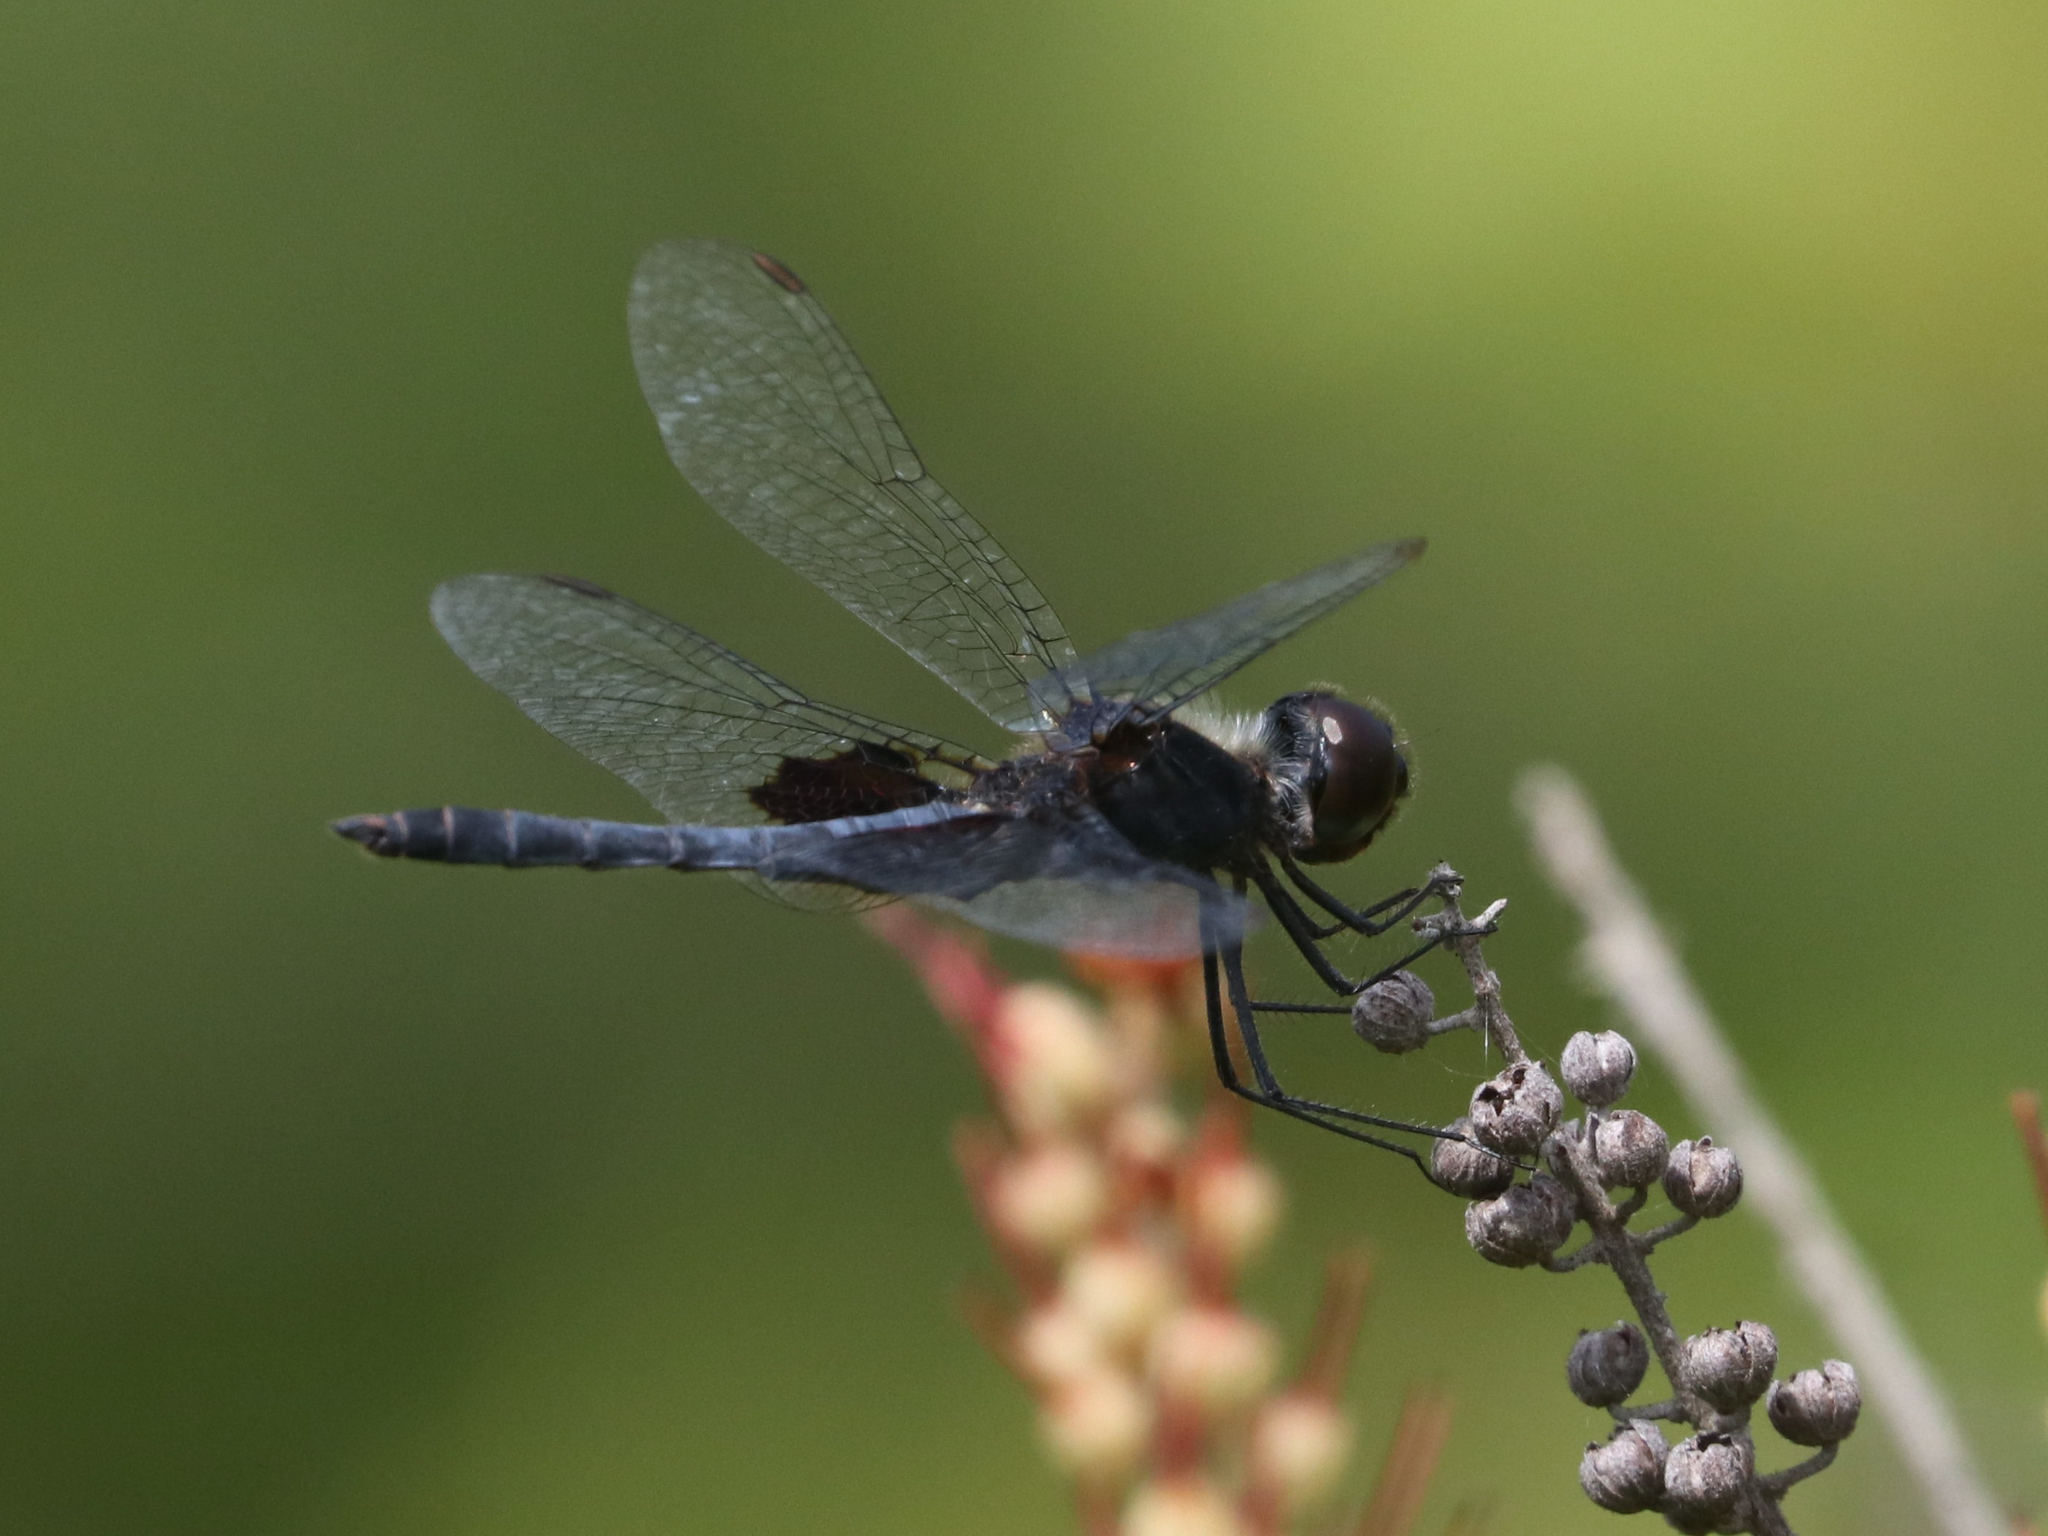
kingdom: Animalia
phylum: Arthropoda
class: Insecta
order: Odonata
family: Libellulidae
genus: Celithemis
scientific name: Celithemis martha
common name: Martha's pennant
